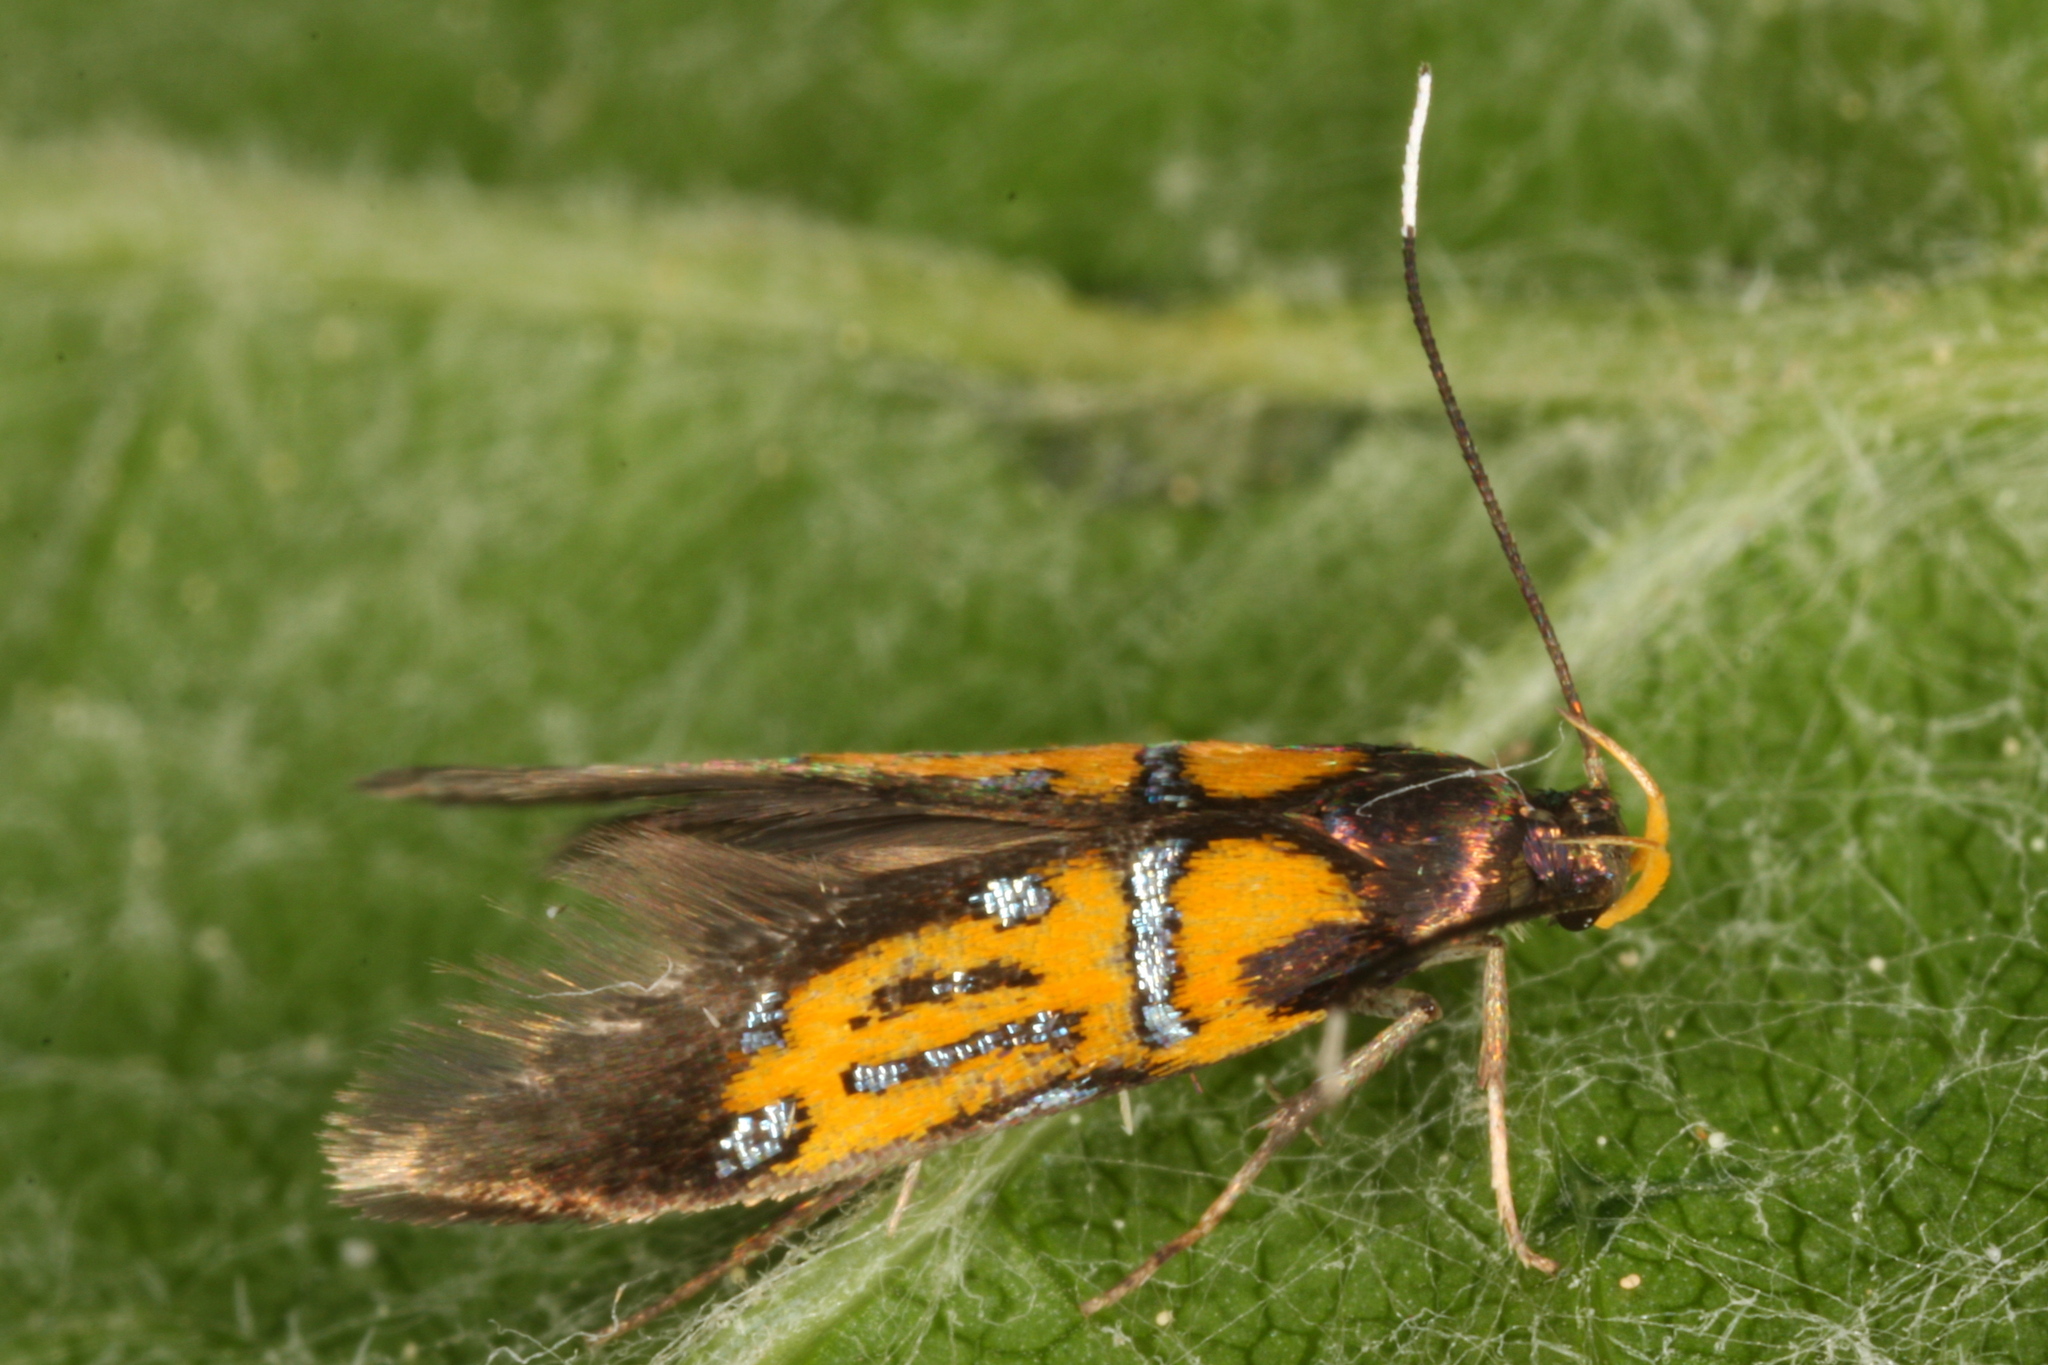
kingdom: Animalia
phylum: Arthropoda
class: Insecta
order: Lepidoptera
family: Oecophoridae
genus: Schiffermuelleria
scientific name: Schiffermuelleria schaefferella
